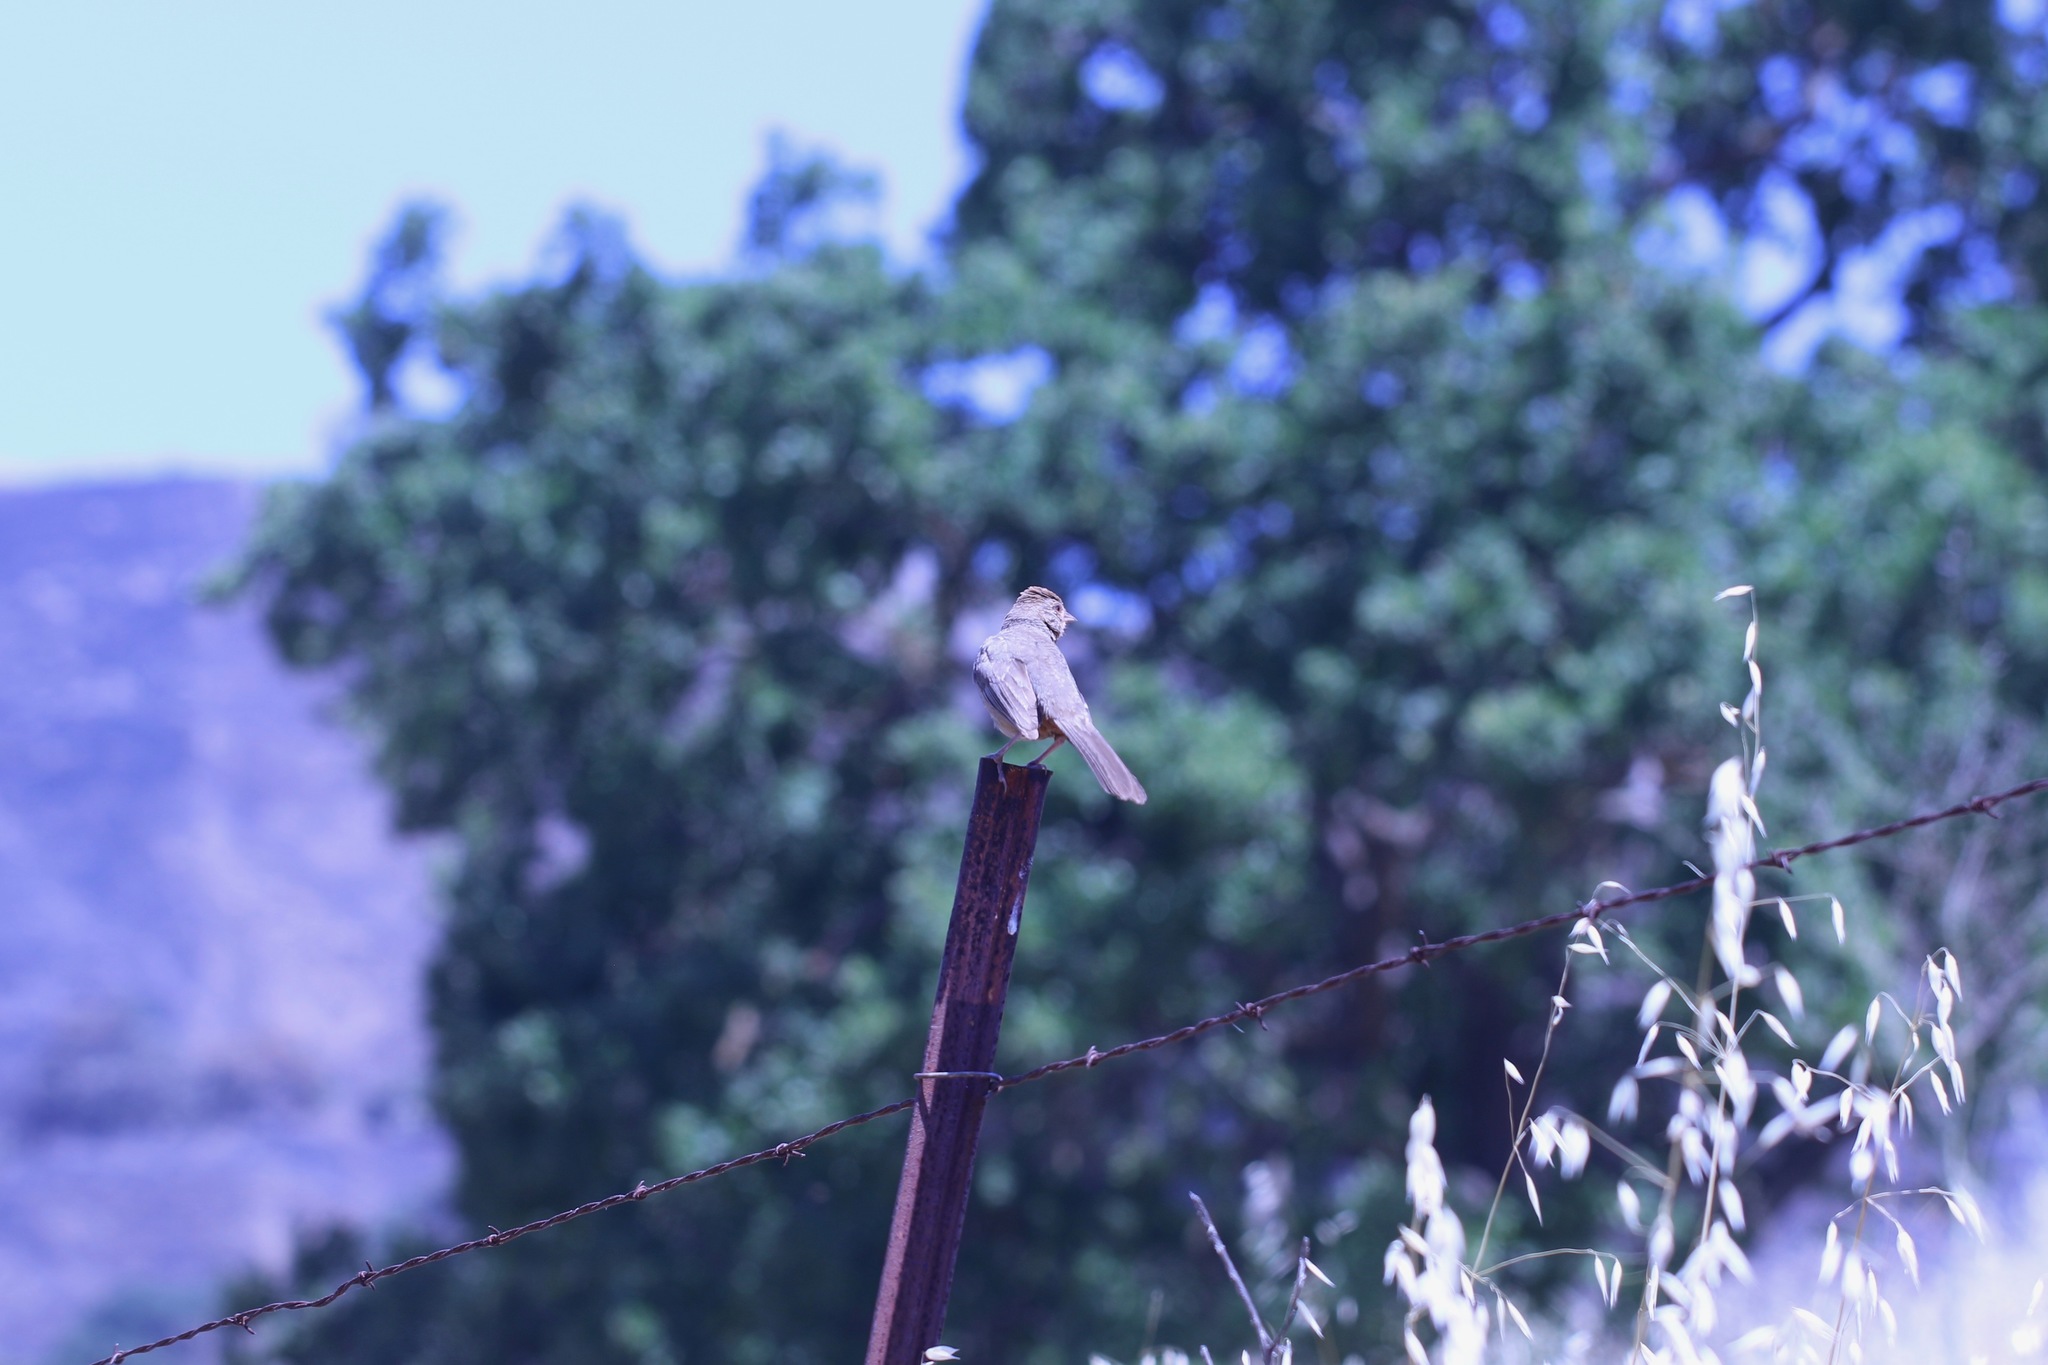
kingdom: Animalia
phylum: Chordata
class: Aves
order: Passeriformes
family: Passerellidae
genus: Melozone
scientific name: Melozone crissalis
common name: California towhee
